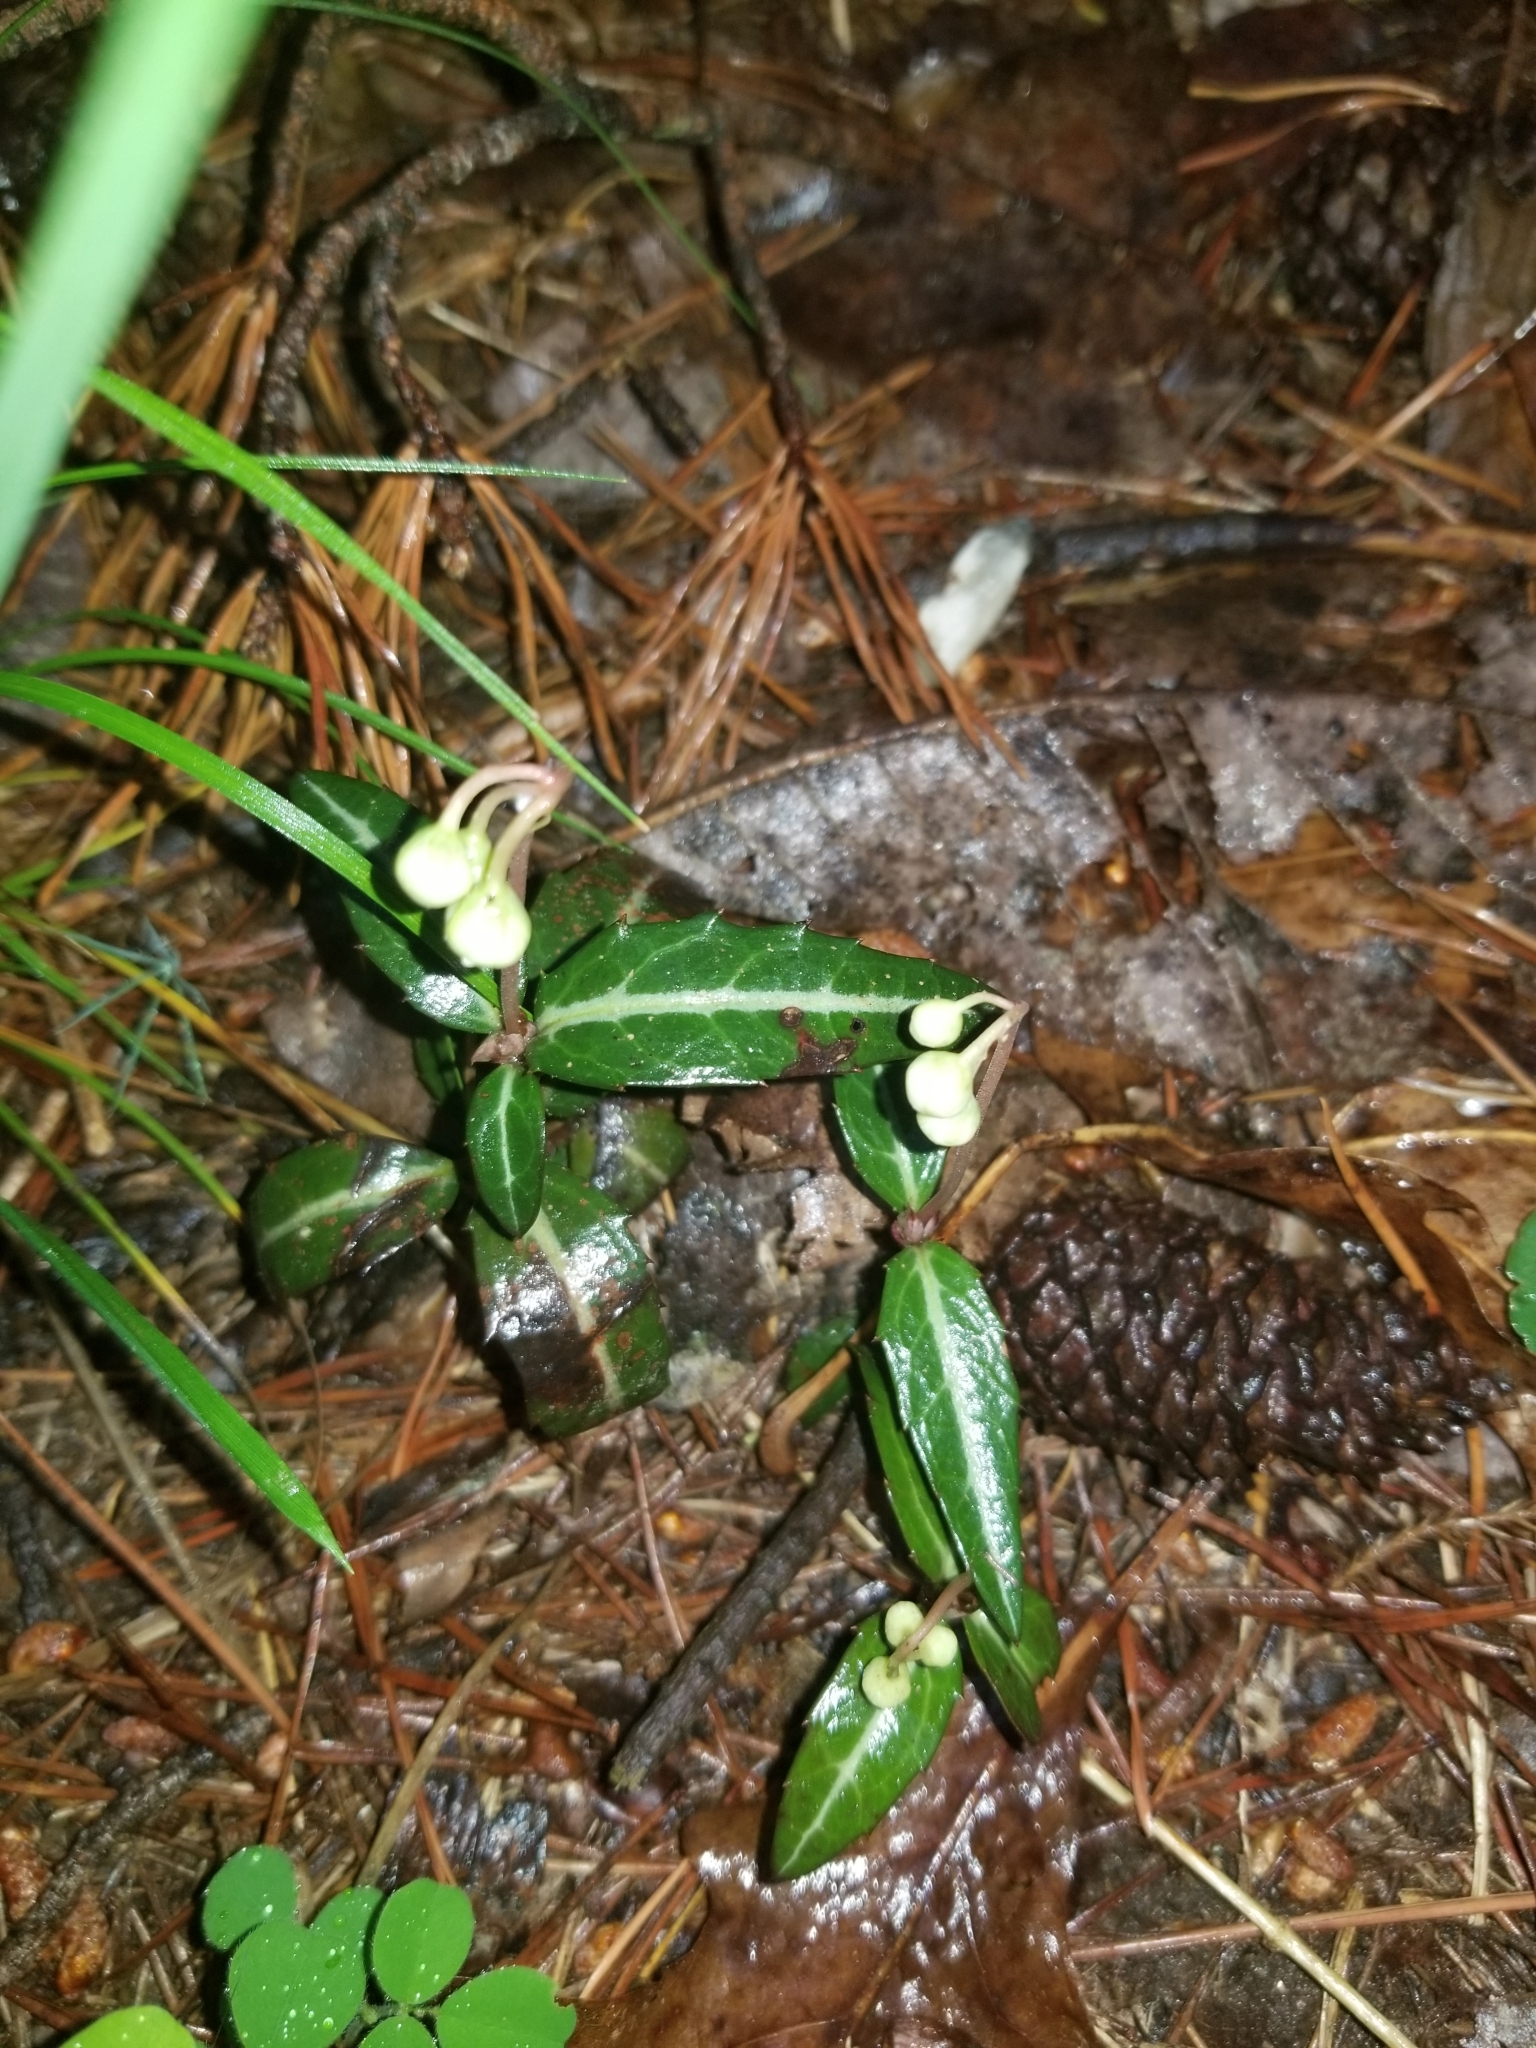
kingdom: Plantae
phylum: Tracheophyta
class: Magnoliopsida
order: Ericales
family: Ericaceae
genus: Chimaphila
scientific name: Chimaphila maculata
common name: Spotted pipsissewa
